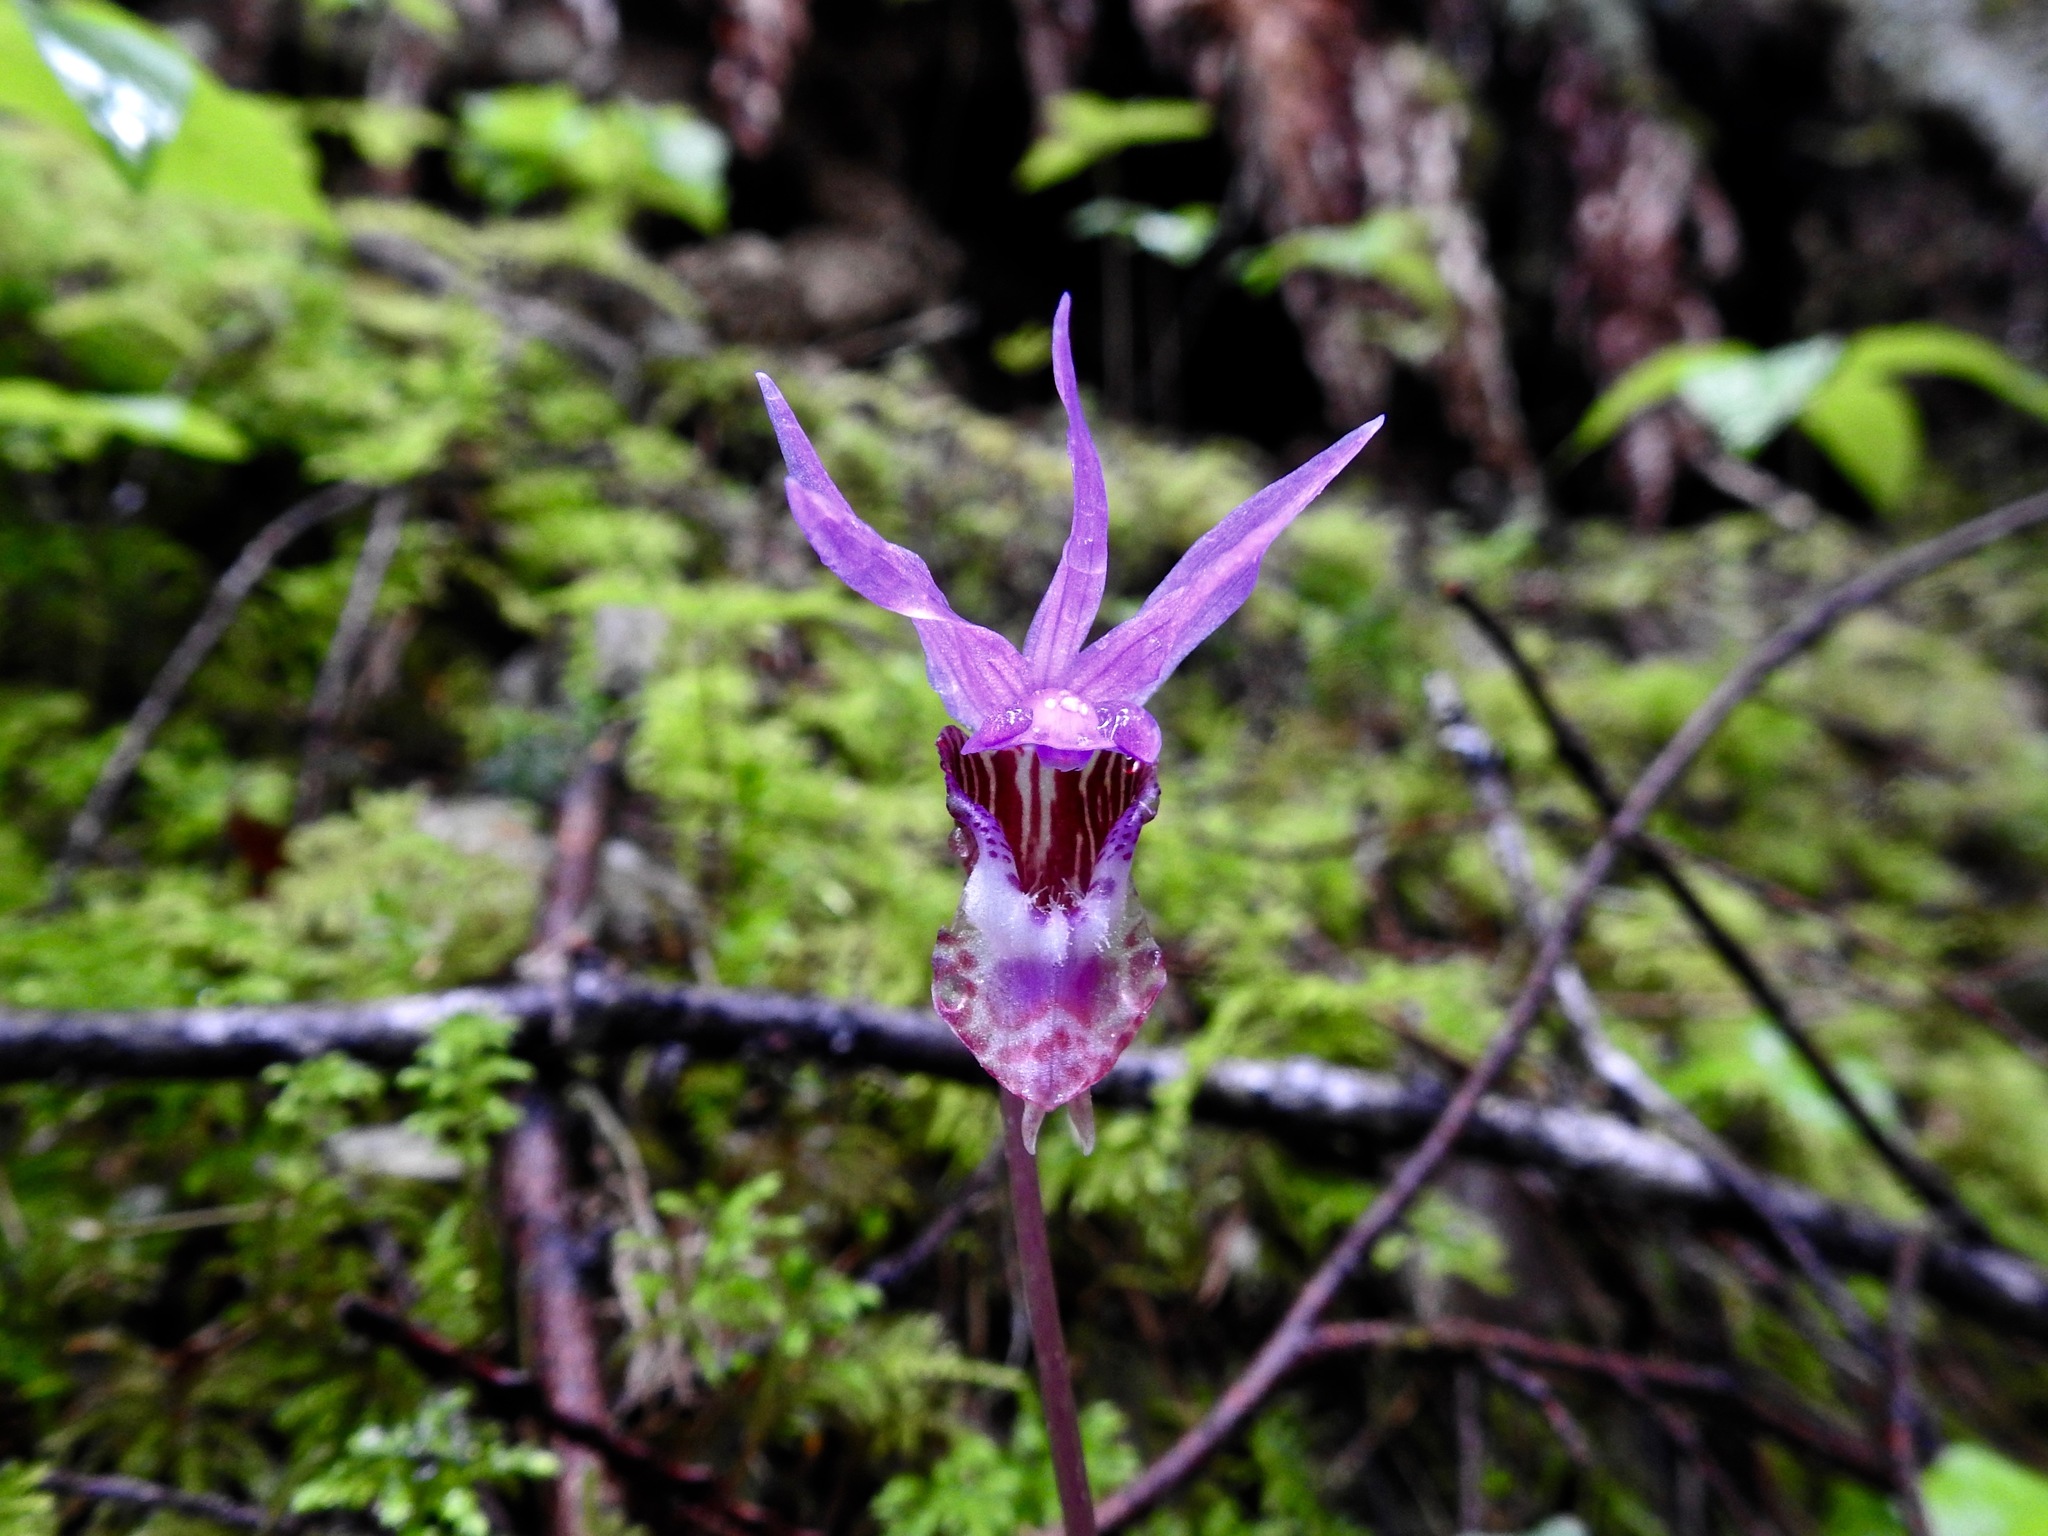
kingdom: Plantae
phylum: Tracheophyta
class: Liliopsida
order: Asparagales
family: Orchidaceae
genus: Calypso
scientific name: Calypso bulbosa
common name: Calypso
